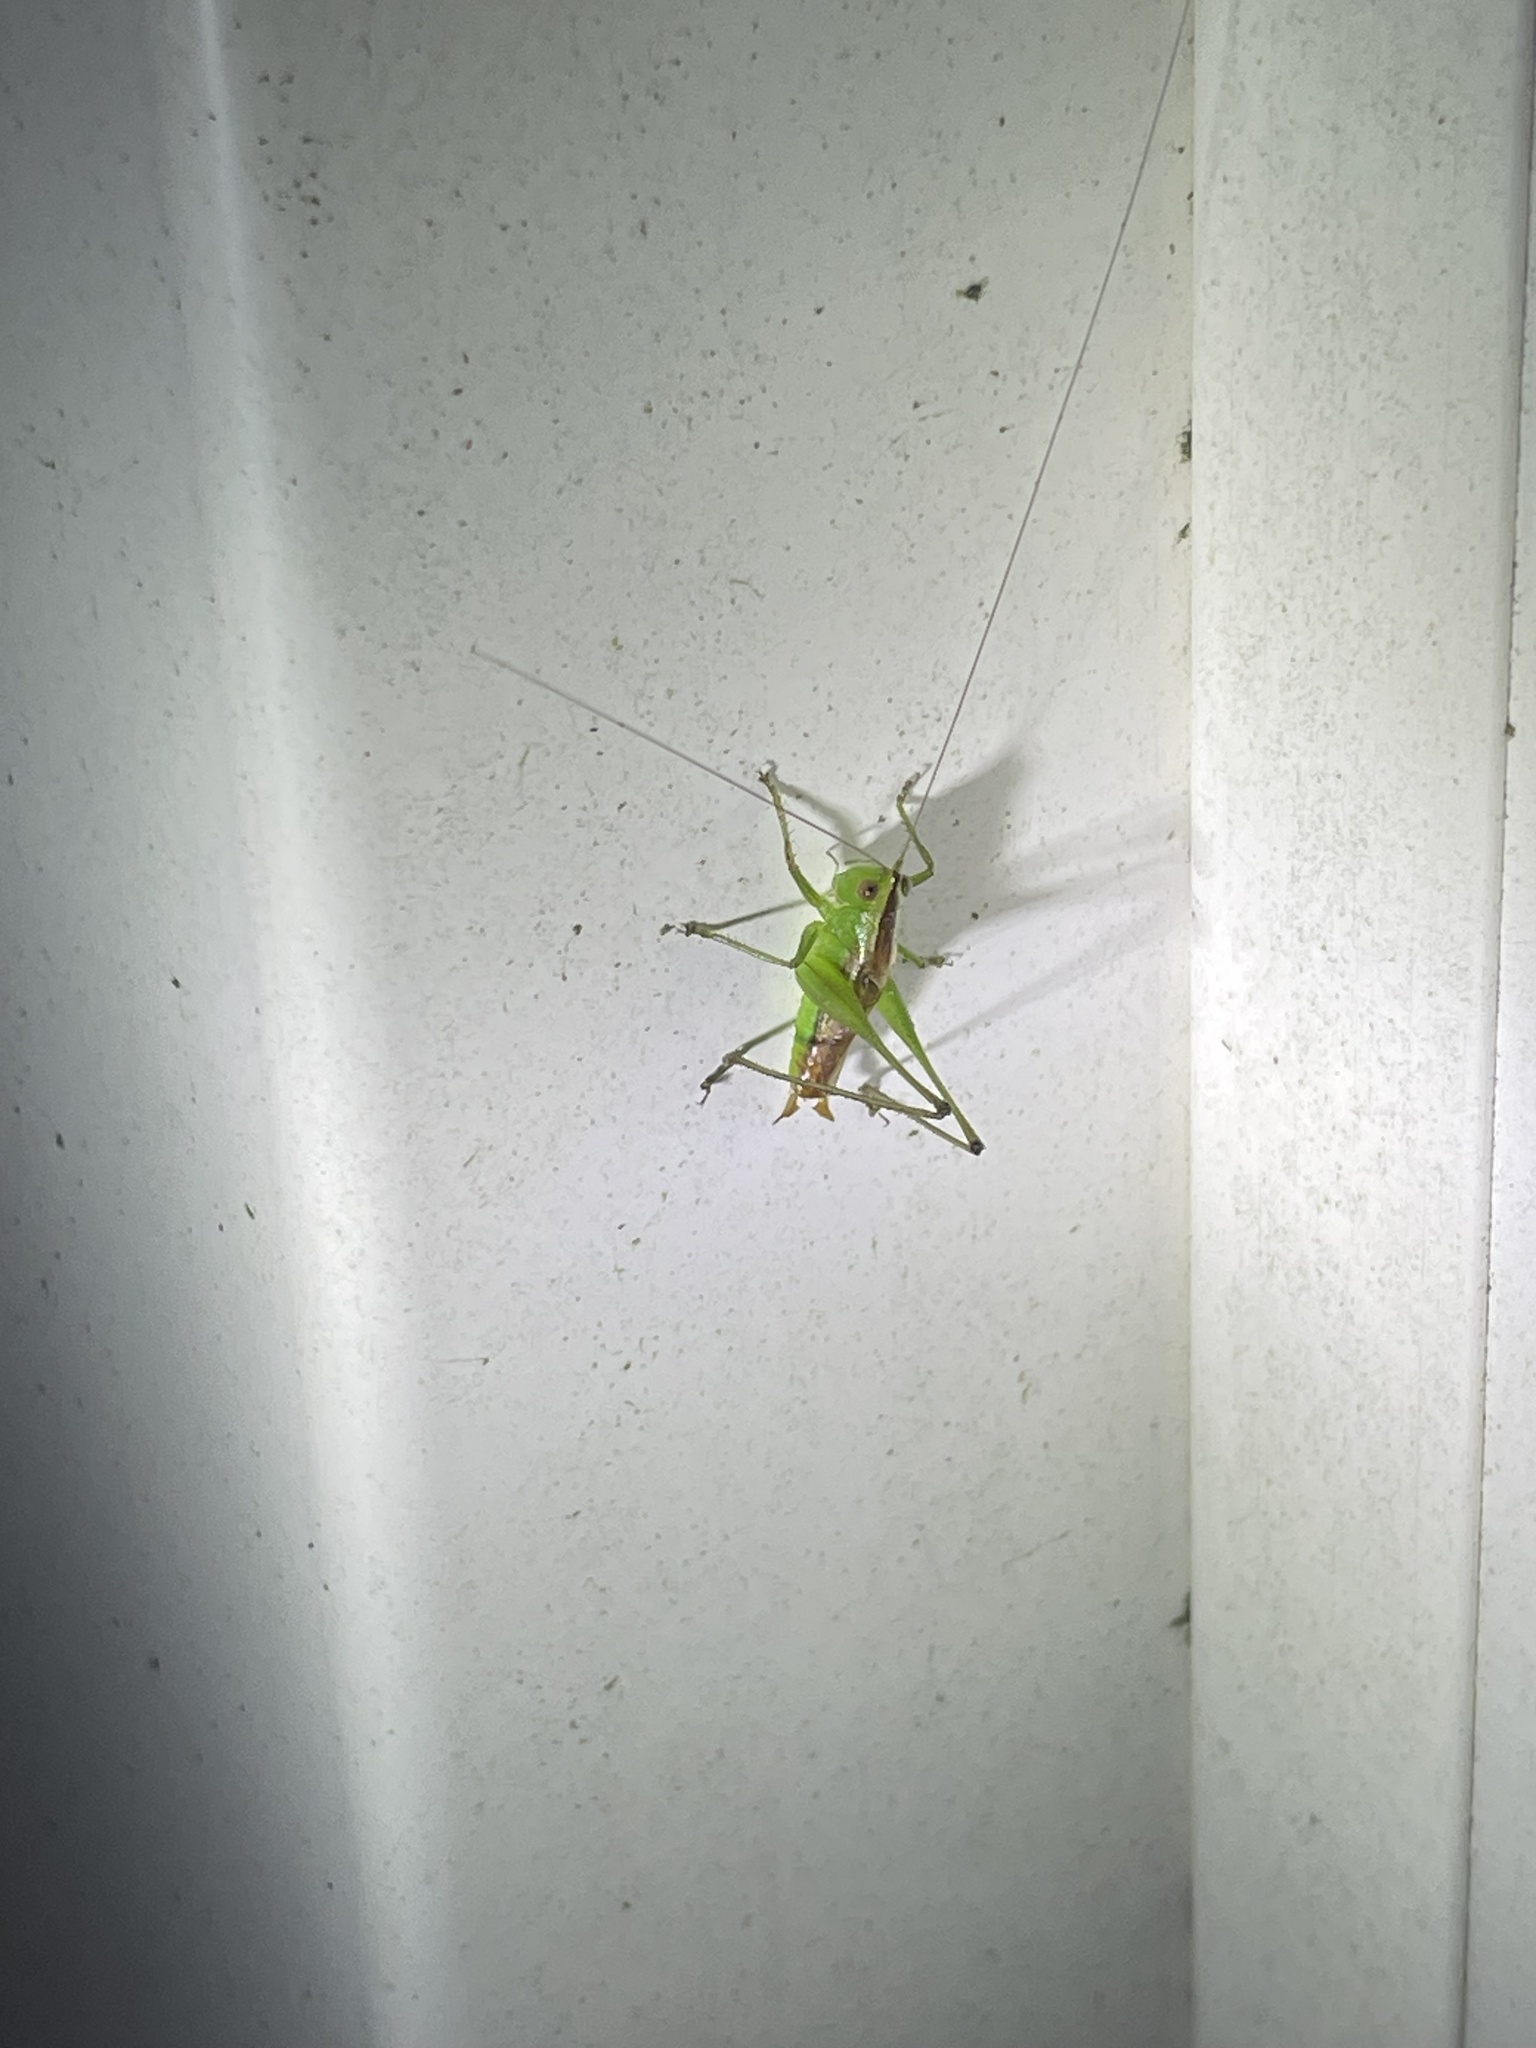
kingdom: Animalia
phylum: Arthropoda
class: Insecta
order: Orthoptera
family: Tettigoniidae
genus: Conocephalus
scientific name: Conocephalus brevipennis
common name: Short-winged meadow katydid
